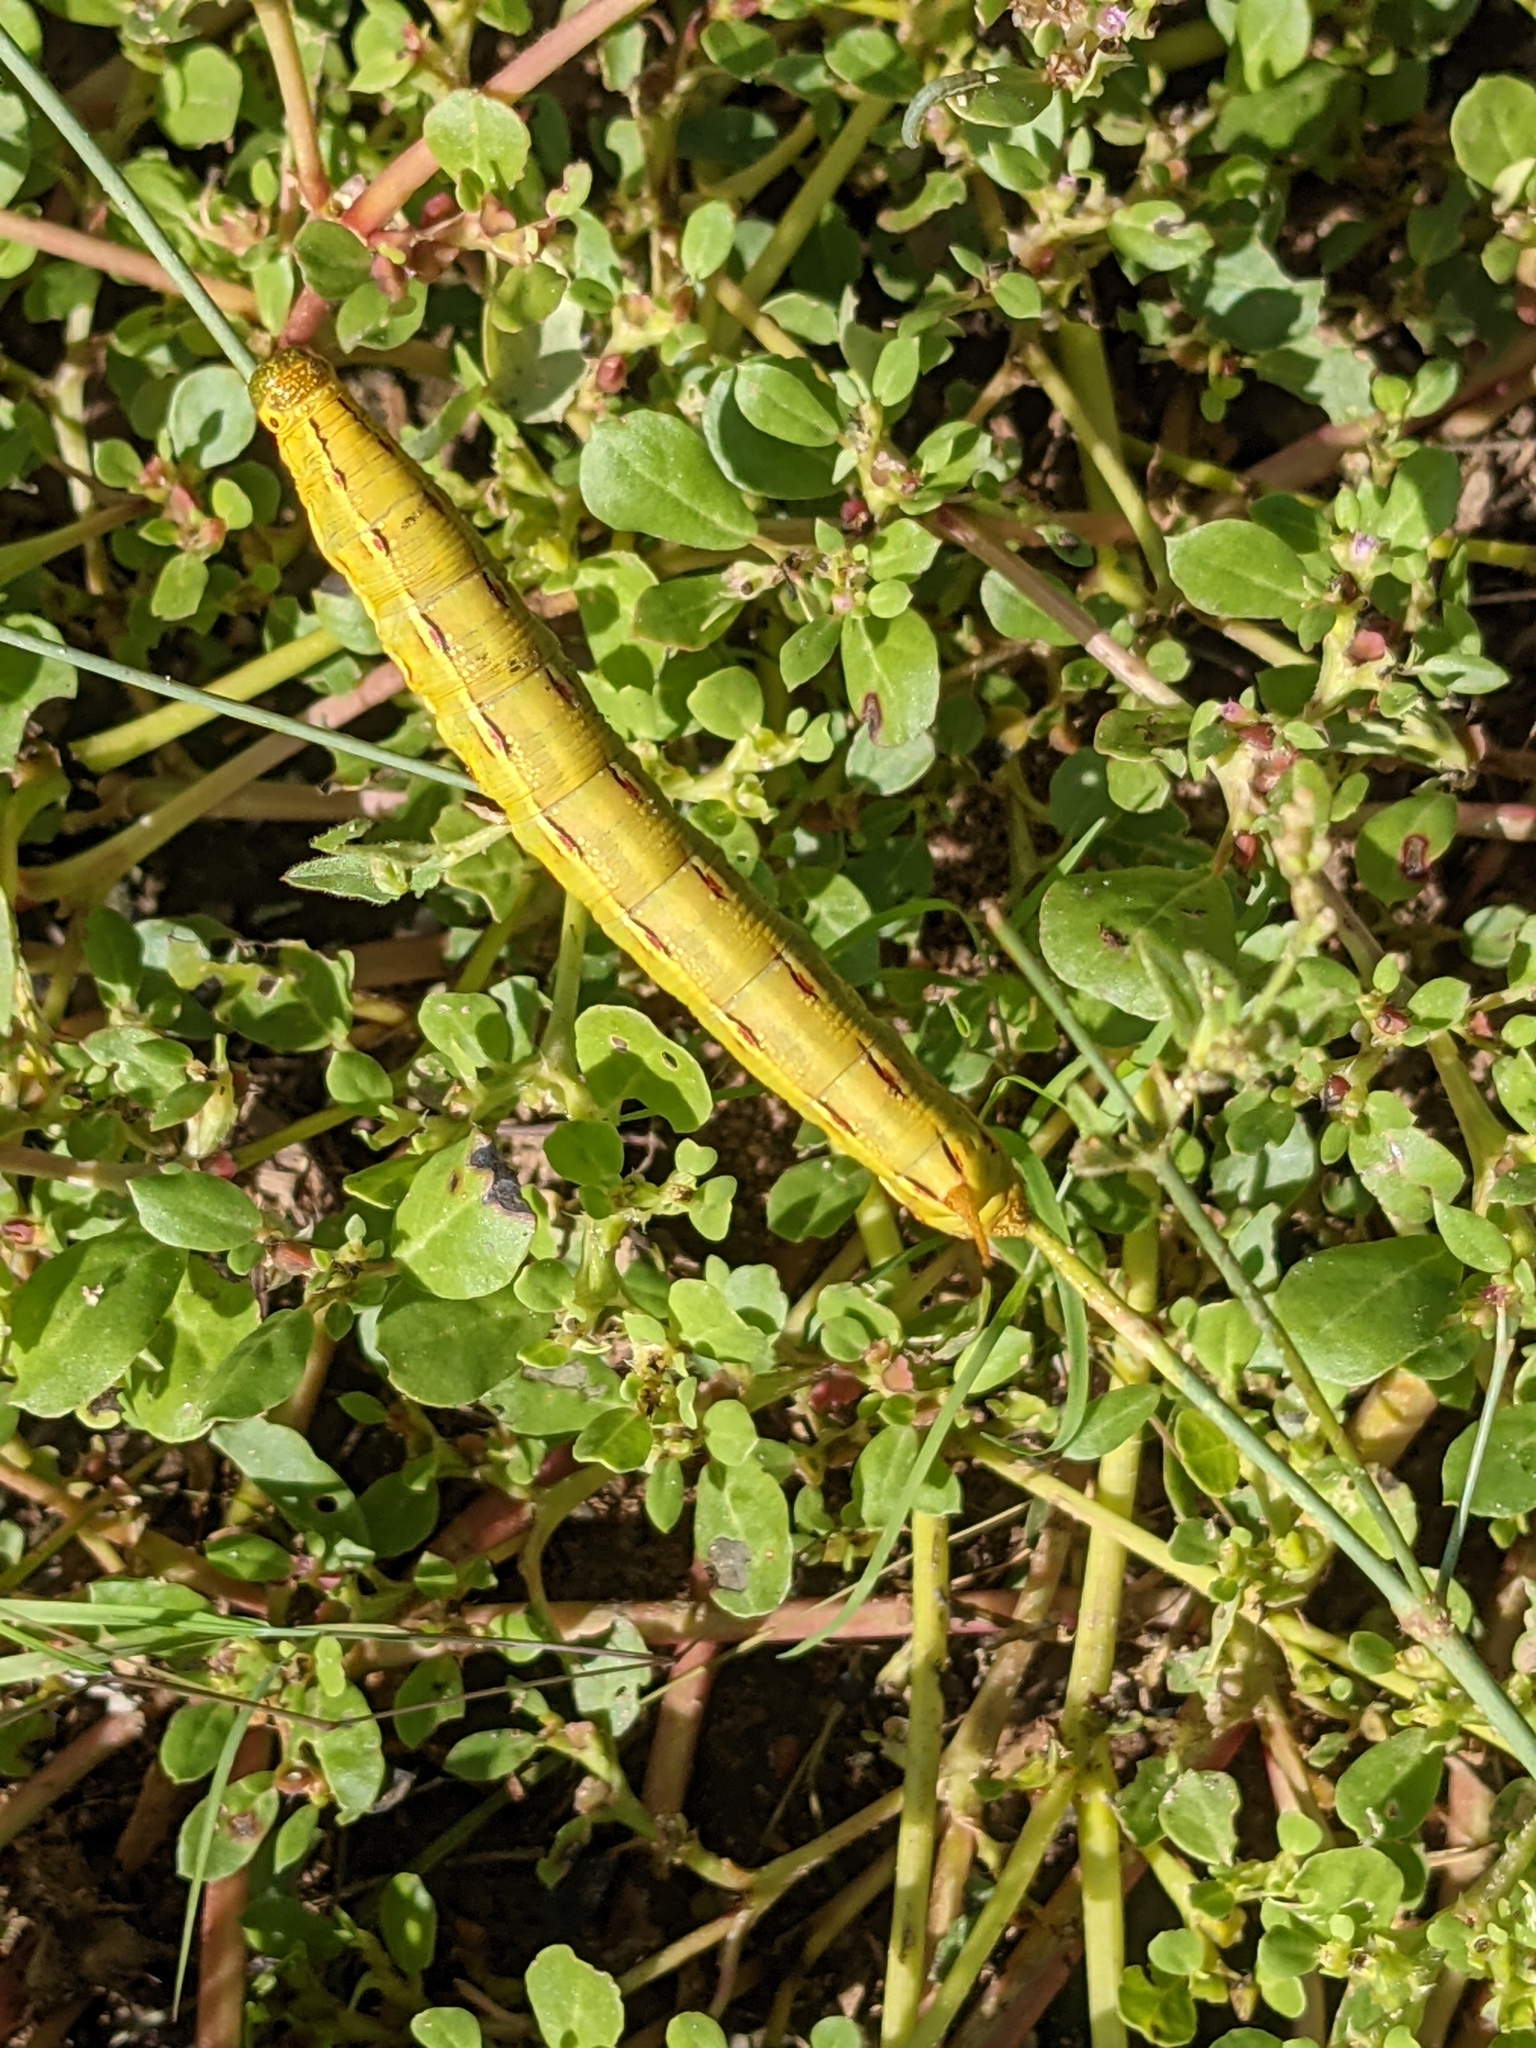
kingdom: Animalia
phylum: Arthropoda
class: Insecta
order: Lepidoptera
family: Sphingidae
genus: Hyles
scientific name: Hyles lineata
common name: White-lined sphinx
